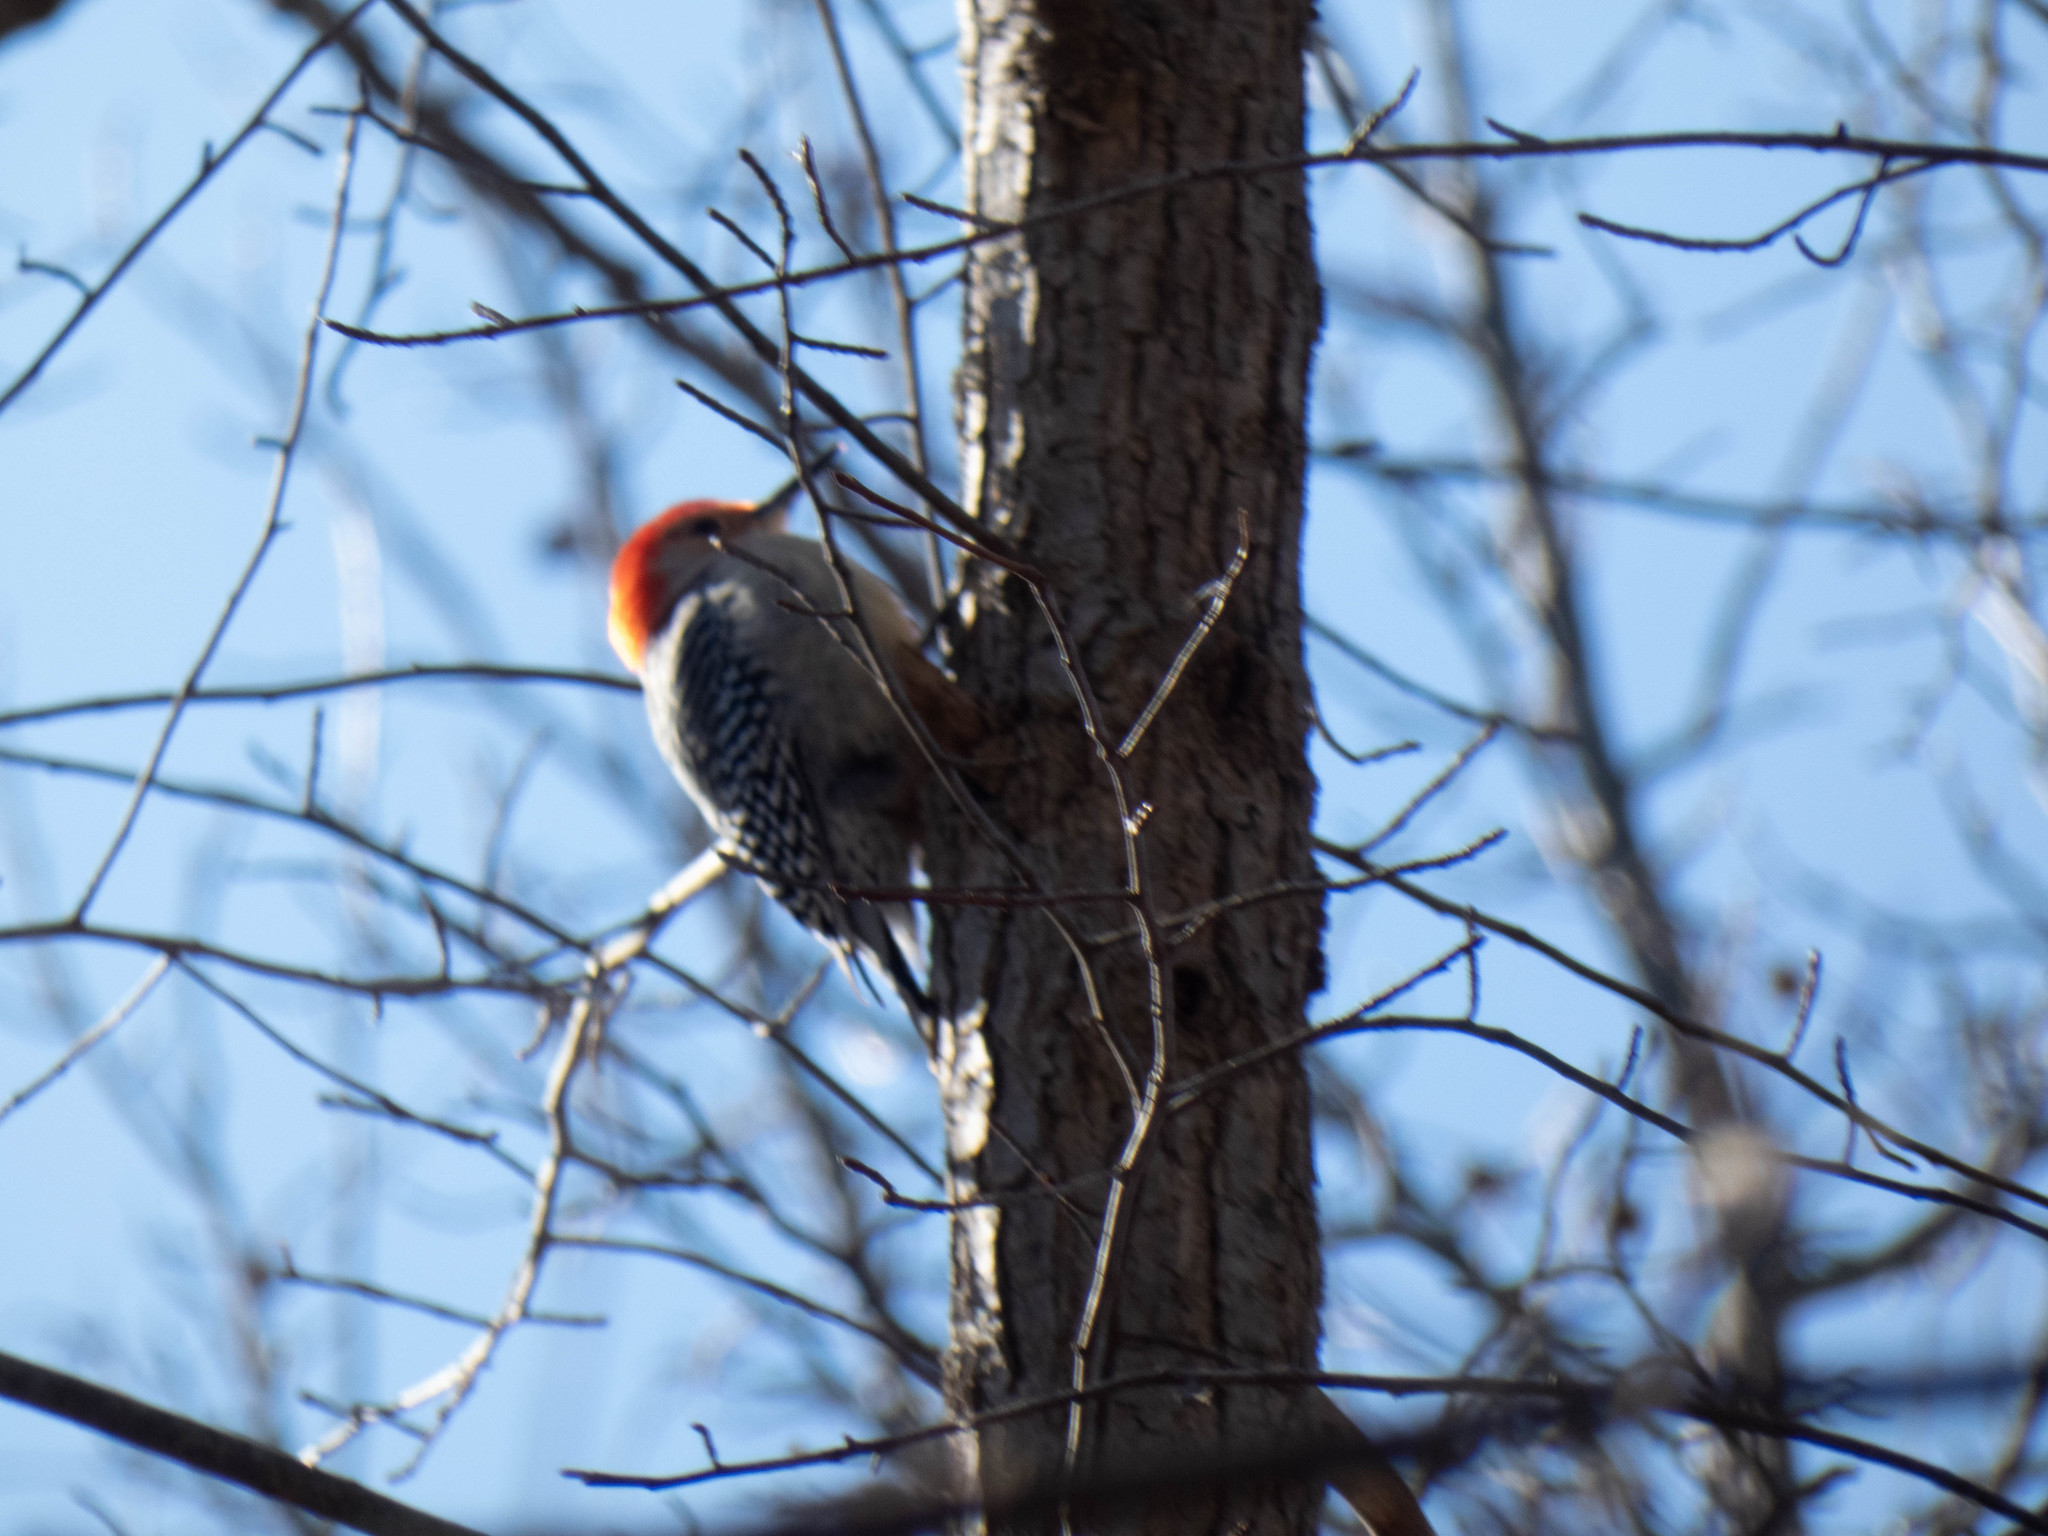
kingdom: Animalia
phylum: Chordata
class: Aves
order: Piciformes
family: Picidae
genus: Melanerpes
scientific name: Melanerpes carolinus
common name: Red-bellied woodpecker
